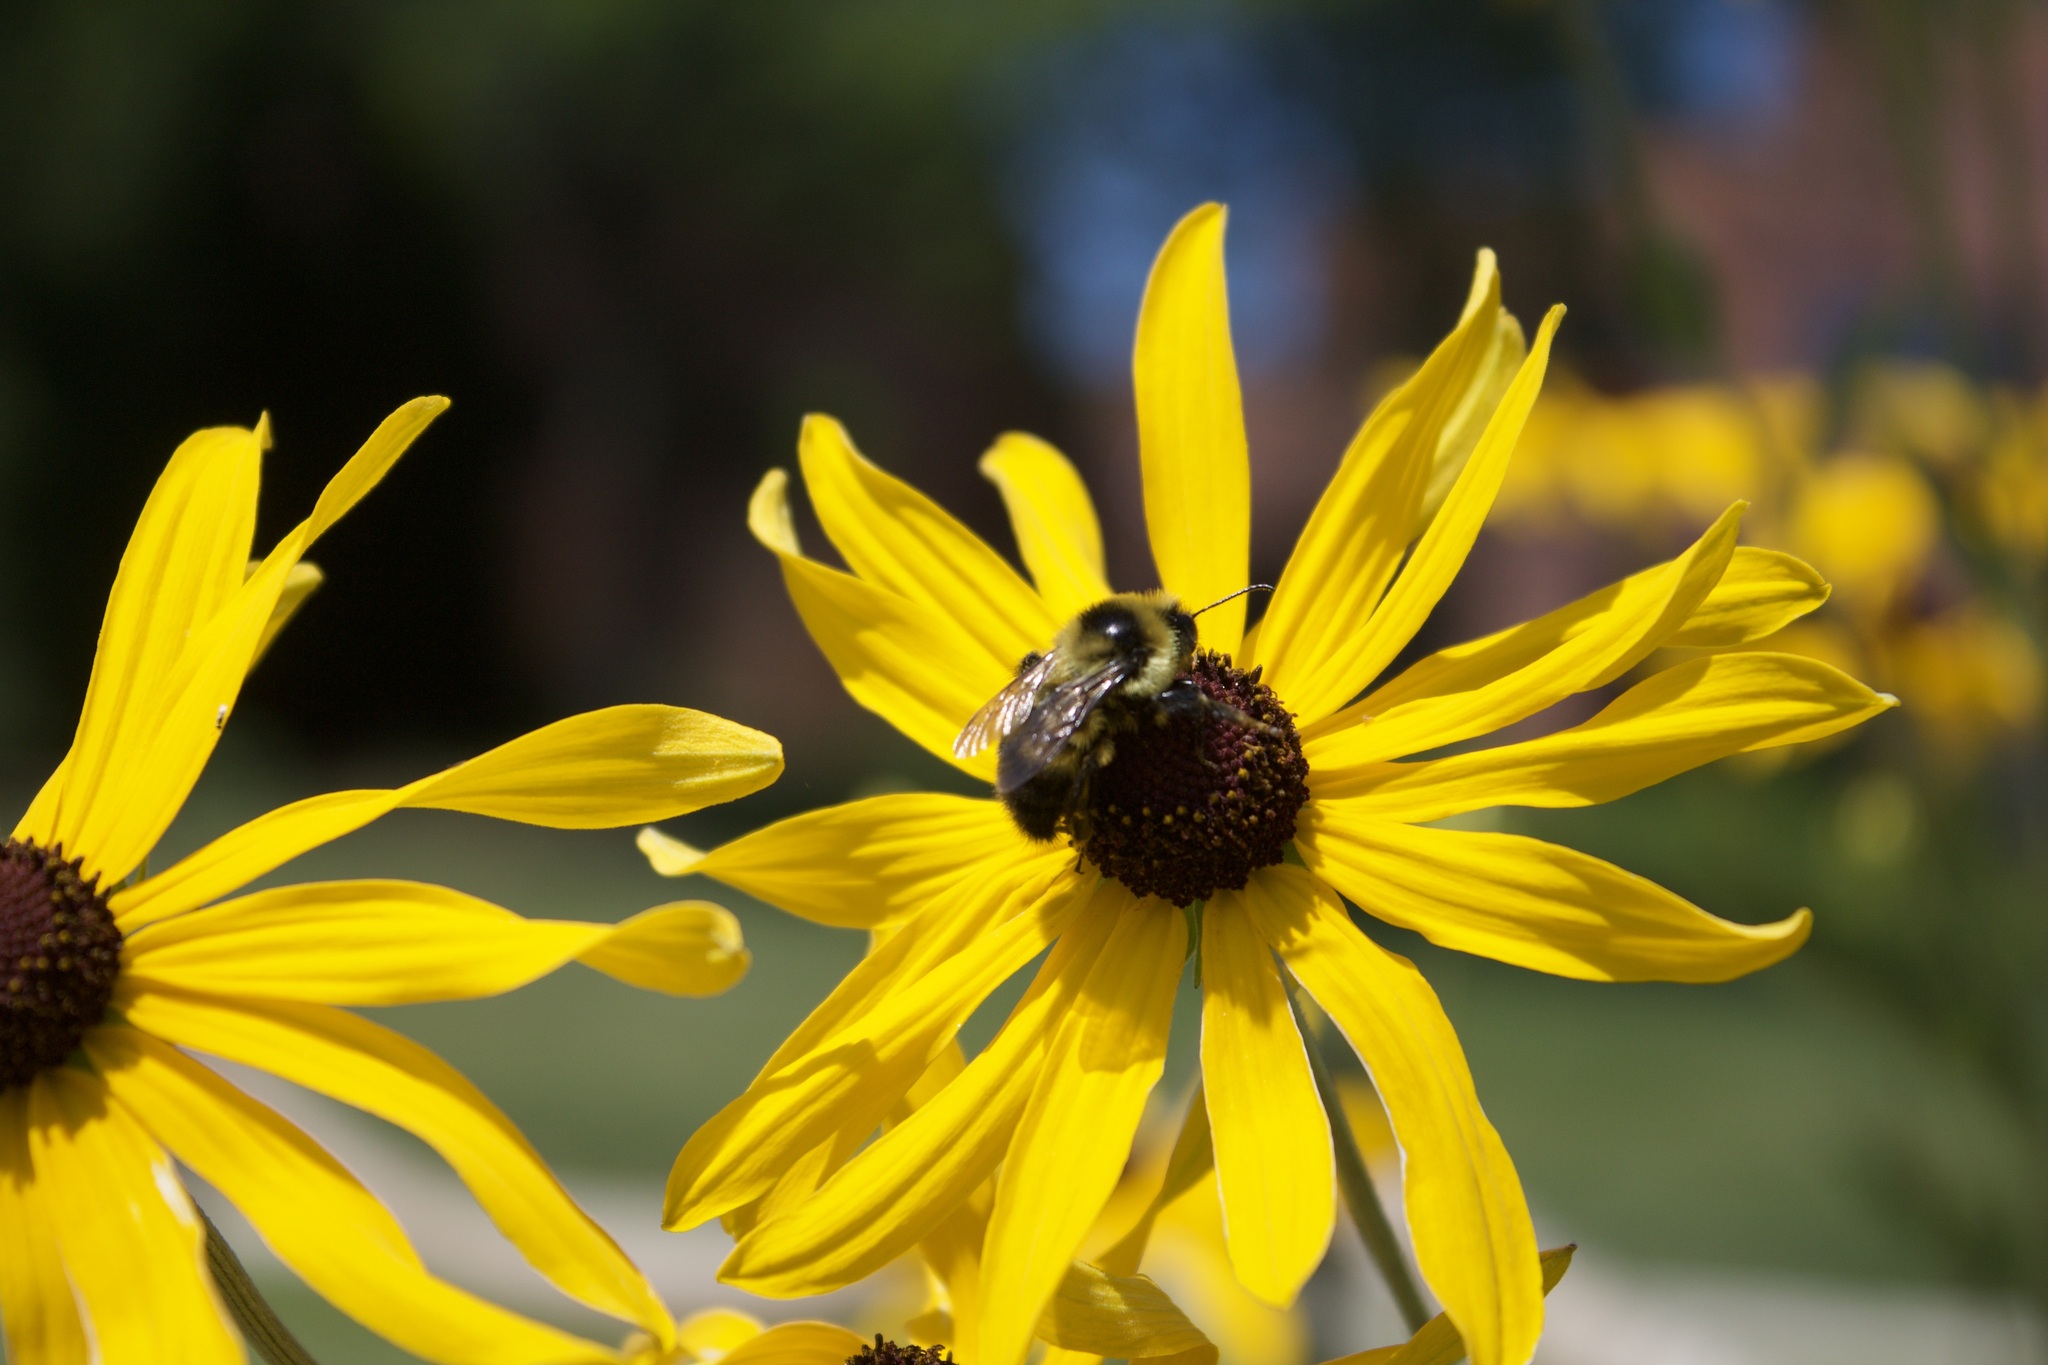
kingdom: Animalia
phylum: Arthropoda
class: Insecta
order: Hymenoptera
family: Apidae
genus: Bombus
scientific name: Bombus rufocinctus
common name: Red-belted bumble bee
